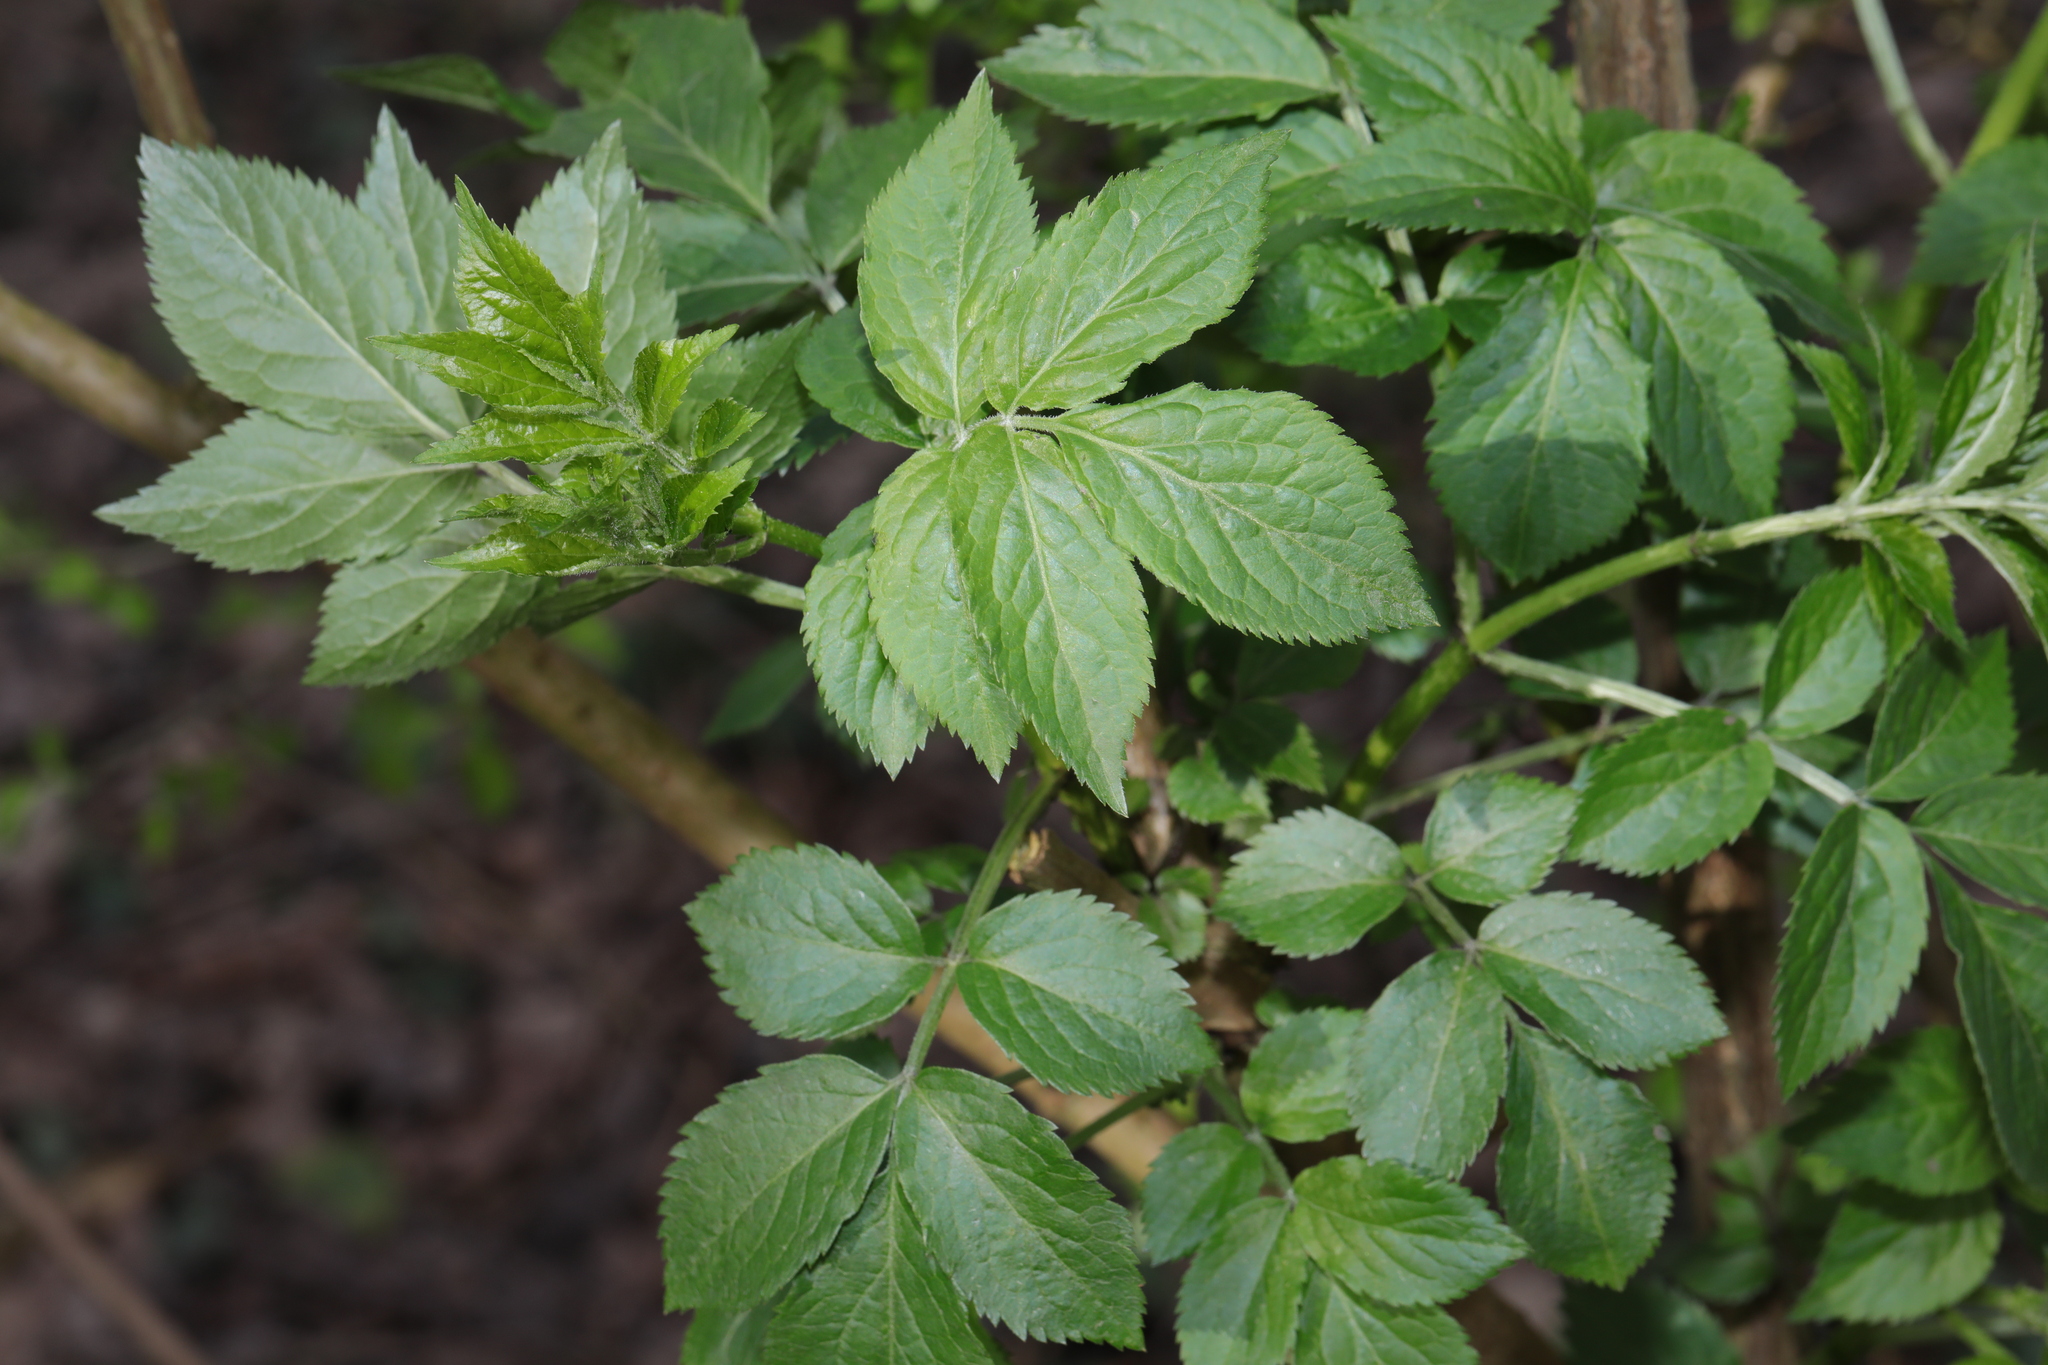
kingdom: Plantae
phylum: Tracheophyta
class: Magnoliopsida
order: Dipsacales
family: Viburnaceae
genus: Sambucus
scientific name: Sambucus nigra
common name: Elder
